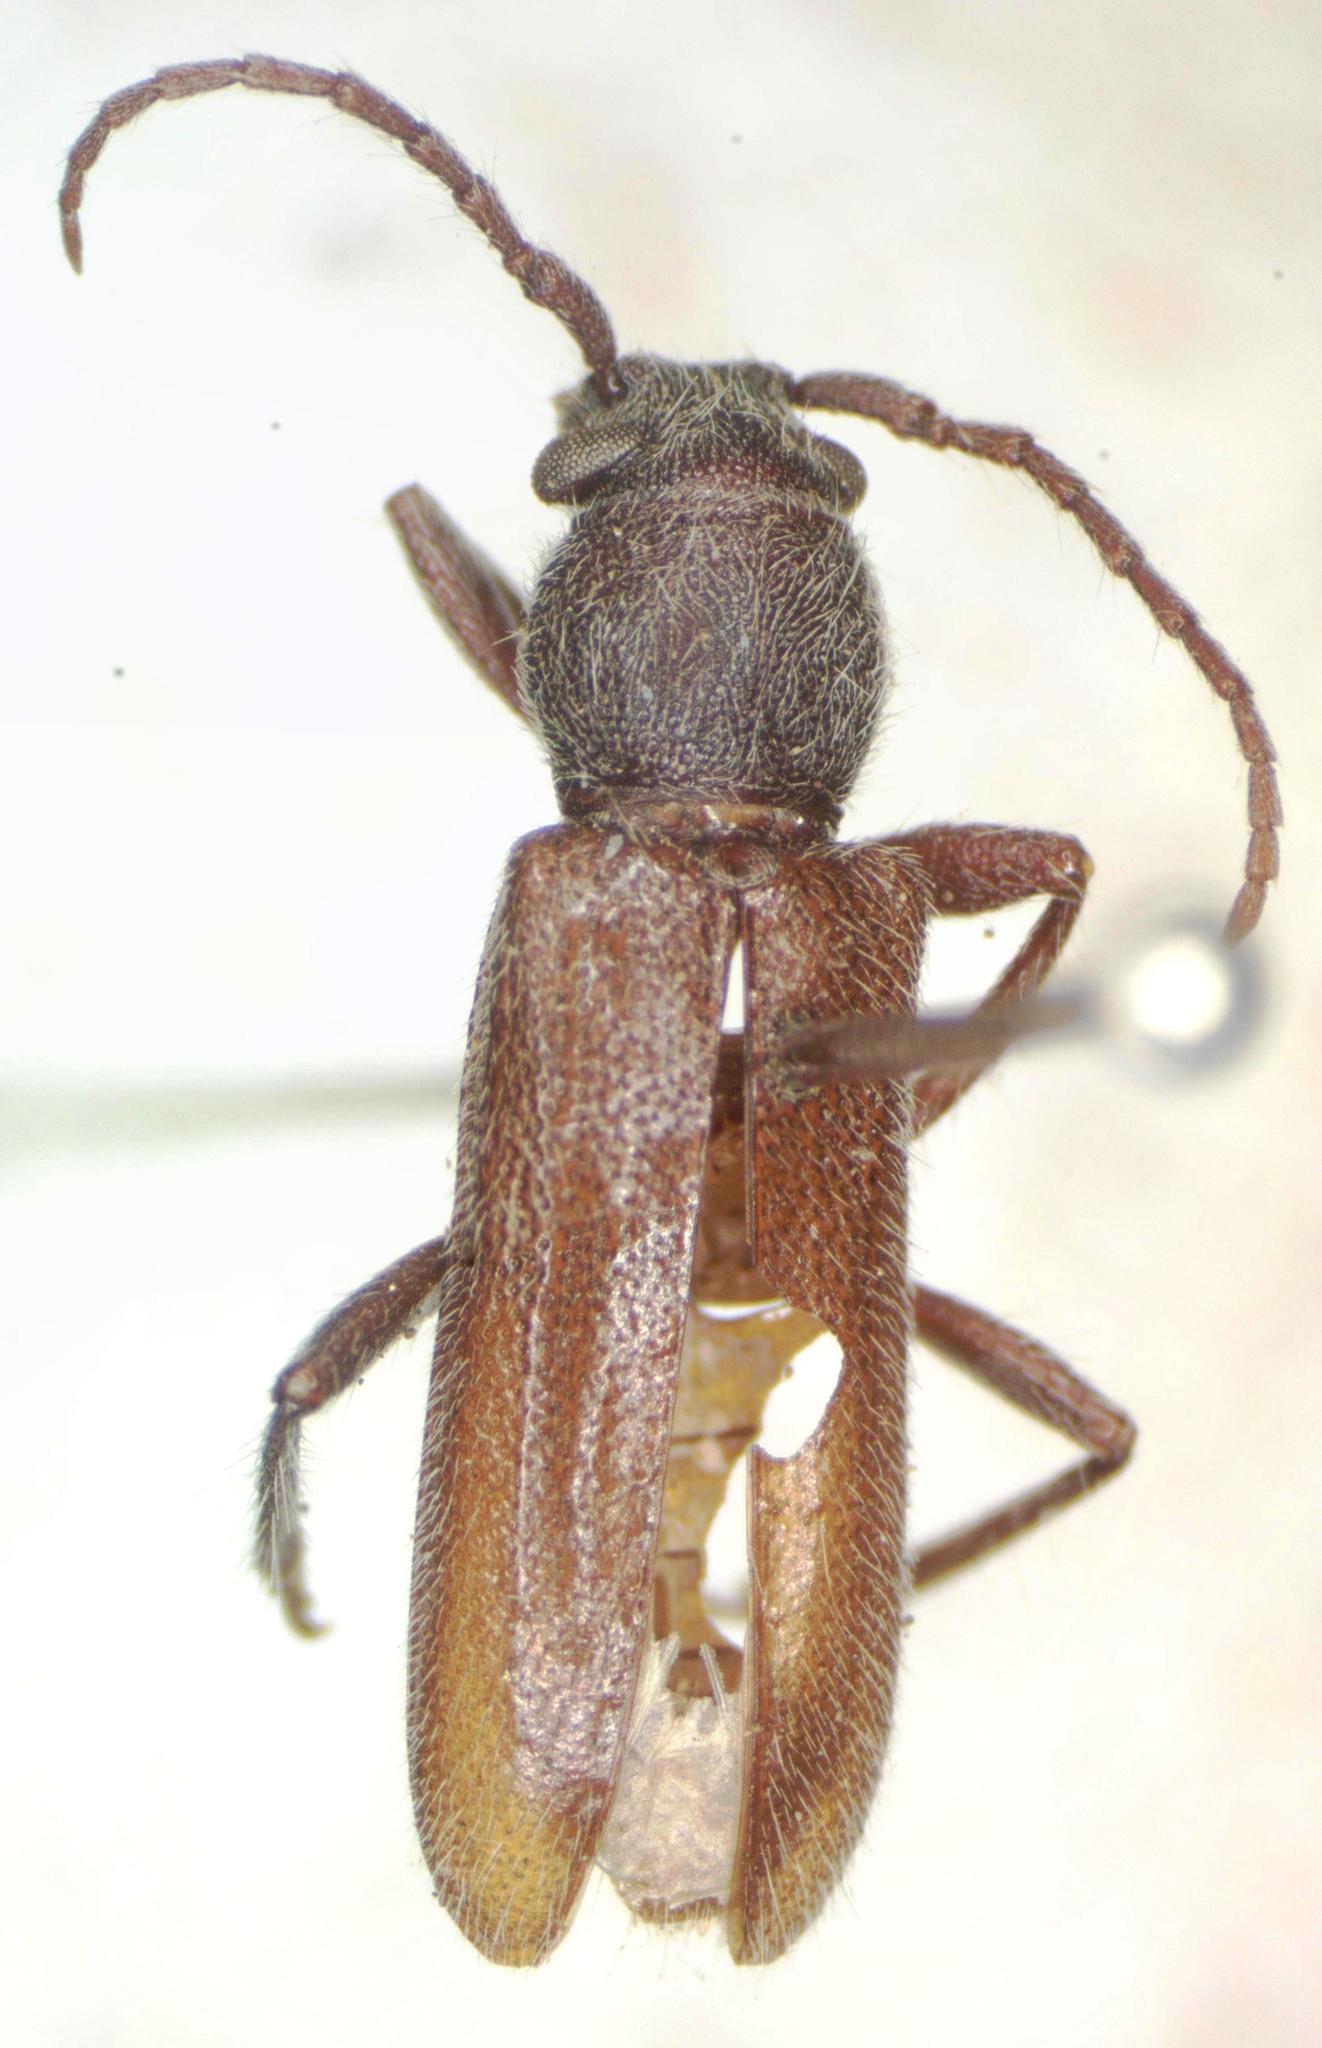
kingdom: Animalia
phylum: Arthropoda
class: Insecta
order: Coleoptera
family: Cerambycidae
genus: Anelaphus
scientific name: Anelaphus inornatum
